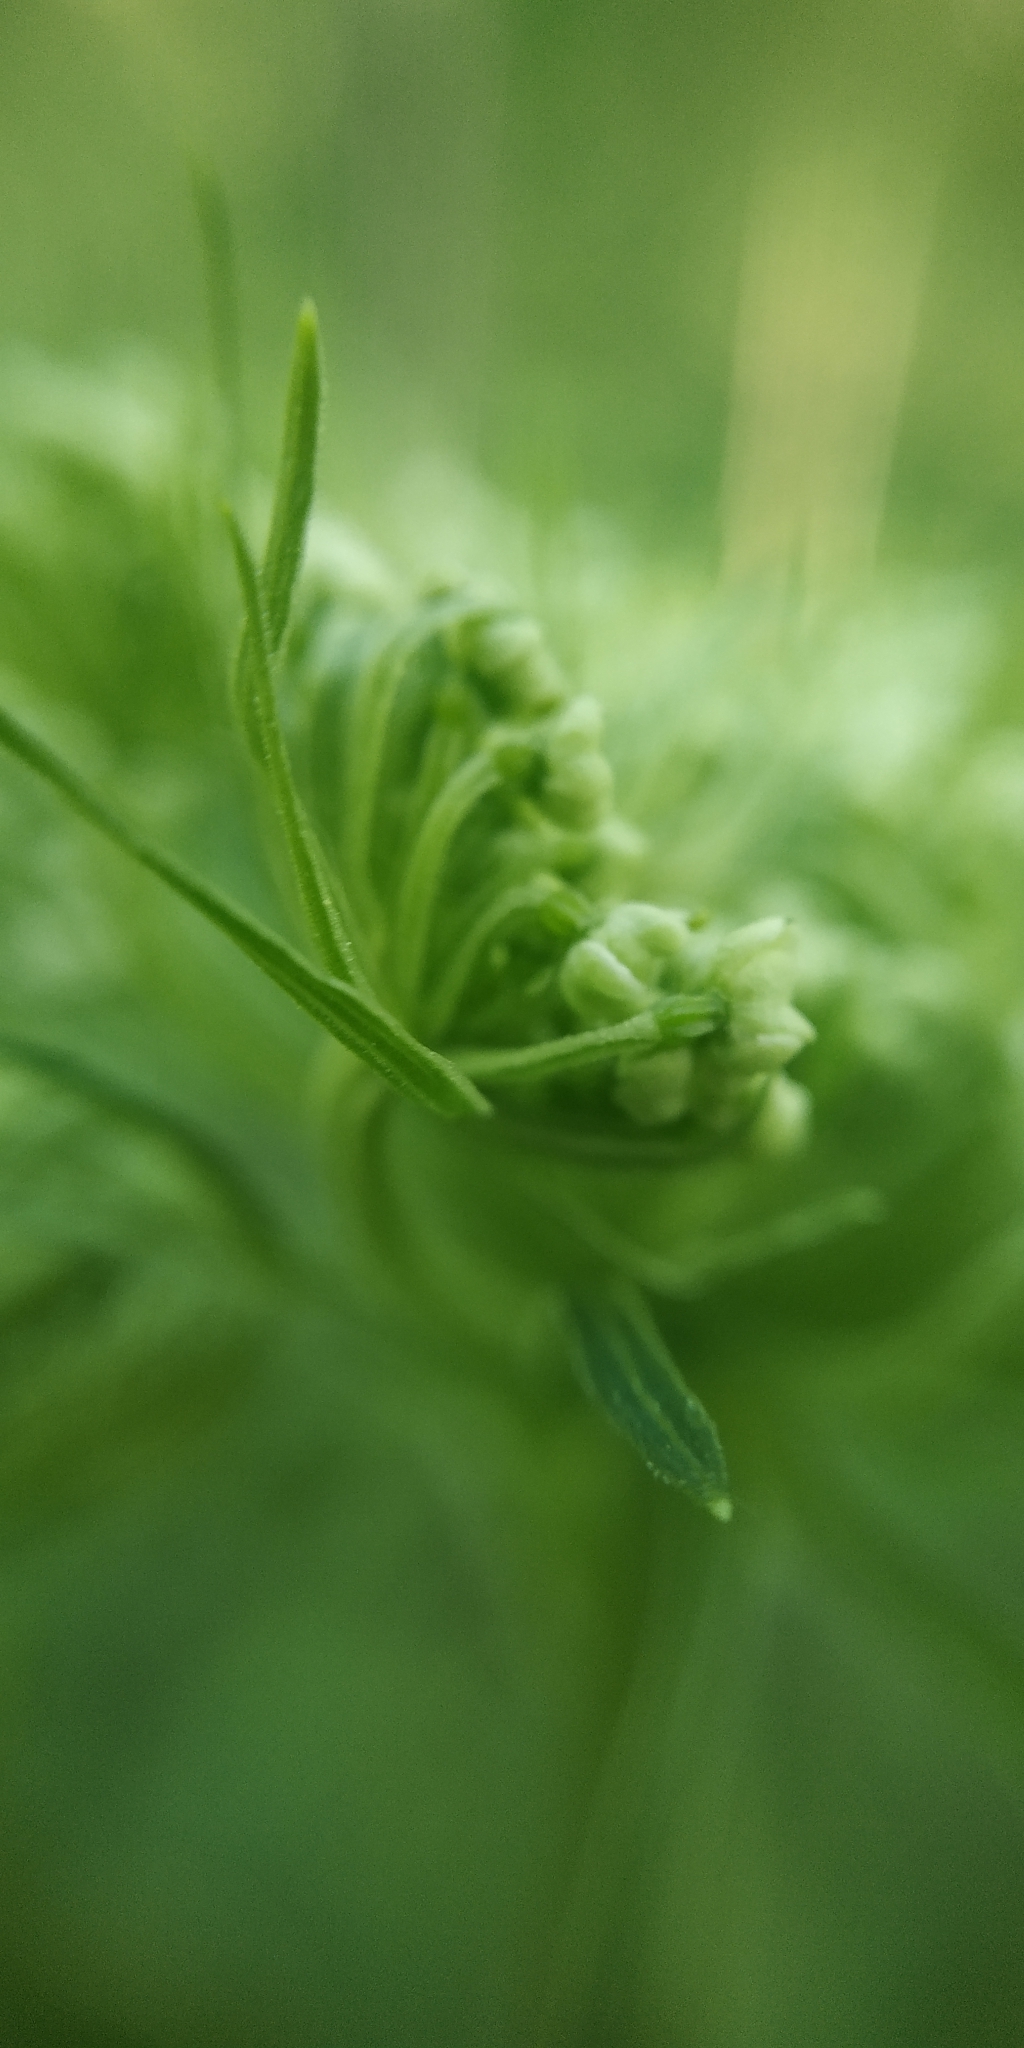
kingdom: Plantae
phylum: Tracheophyta
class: Magnoliopsida
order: Apiales
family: Apiaceae
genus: Pleurospermum
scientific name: Pleurospermum uralense
